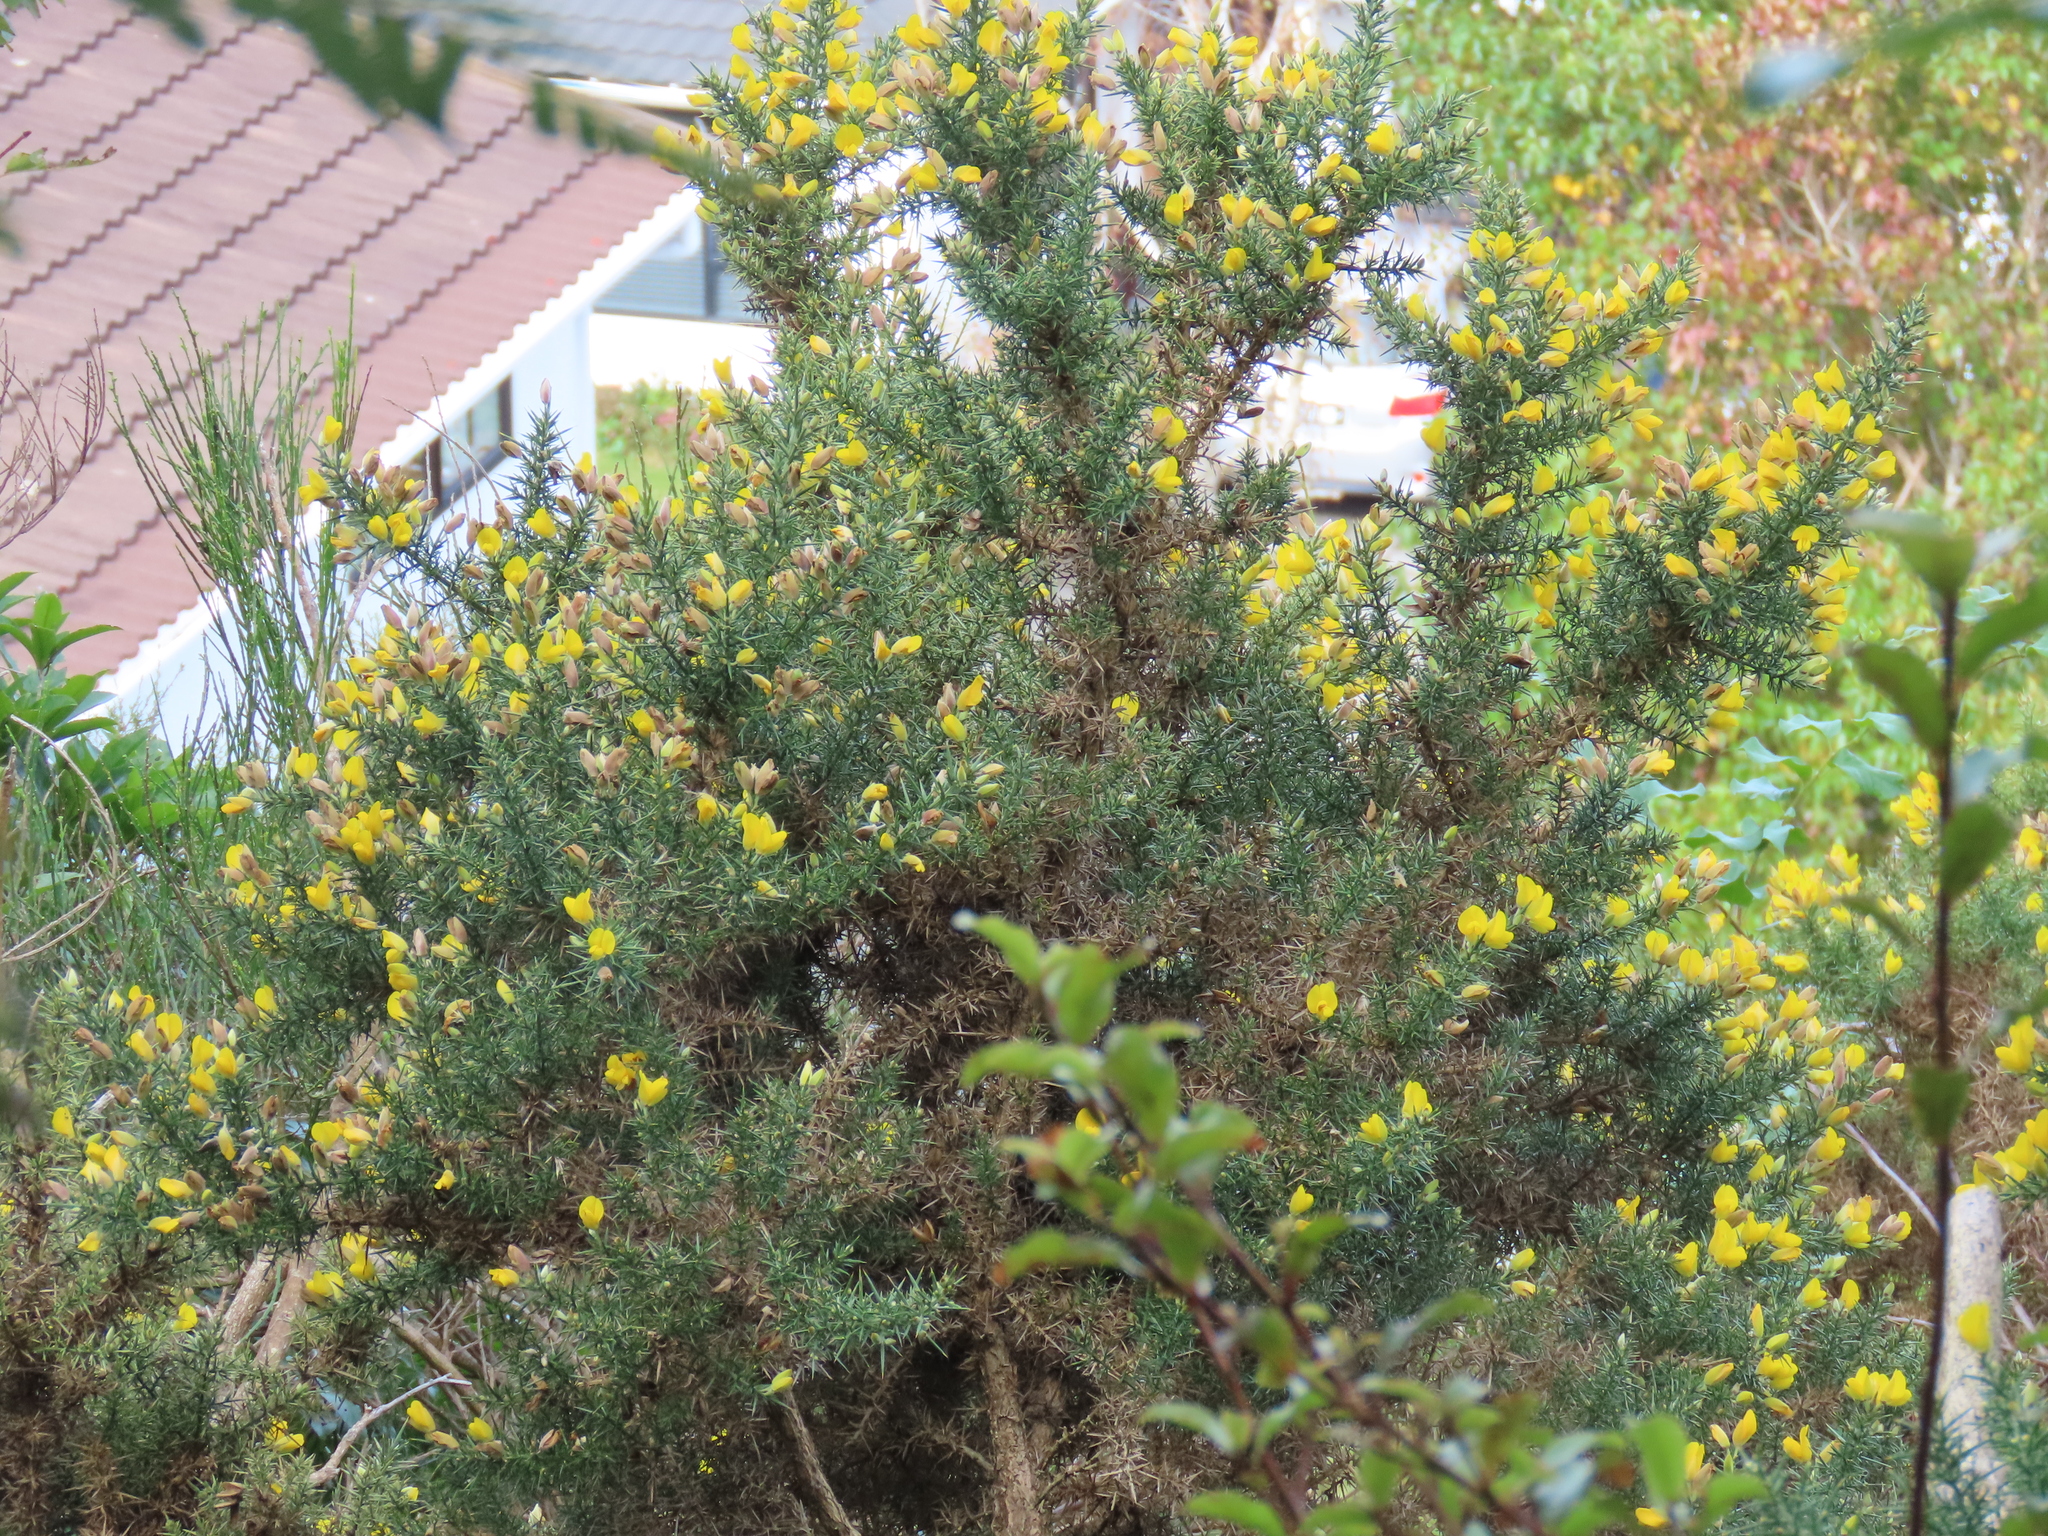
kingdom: Plantae
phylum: Tracheophyta
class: Magnoliopsida
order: Fabales
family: Fabaceae
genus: Ulex
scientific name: Ulex europaeus
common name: Common gorse
